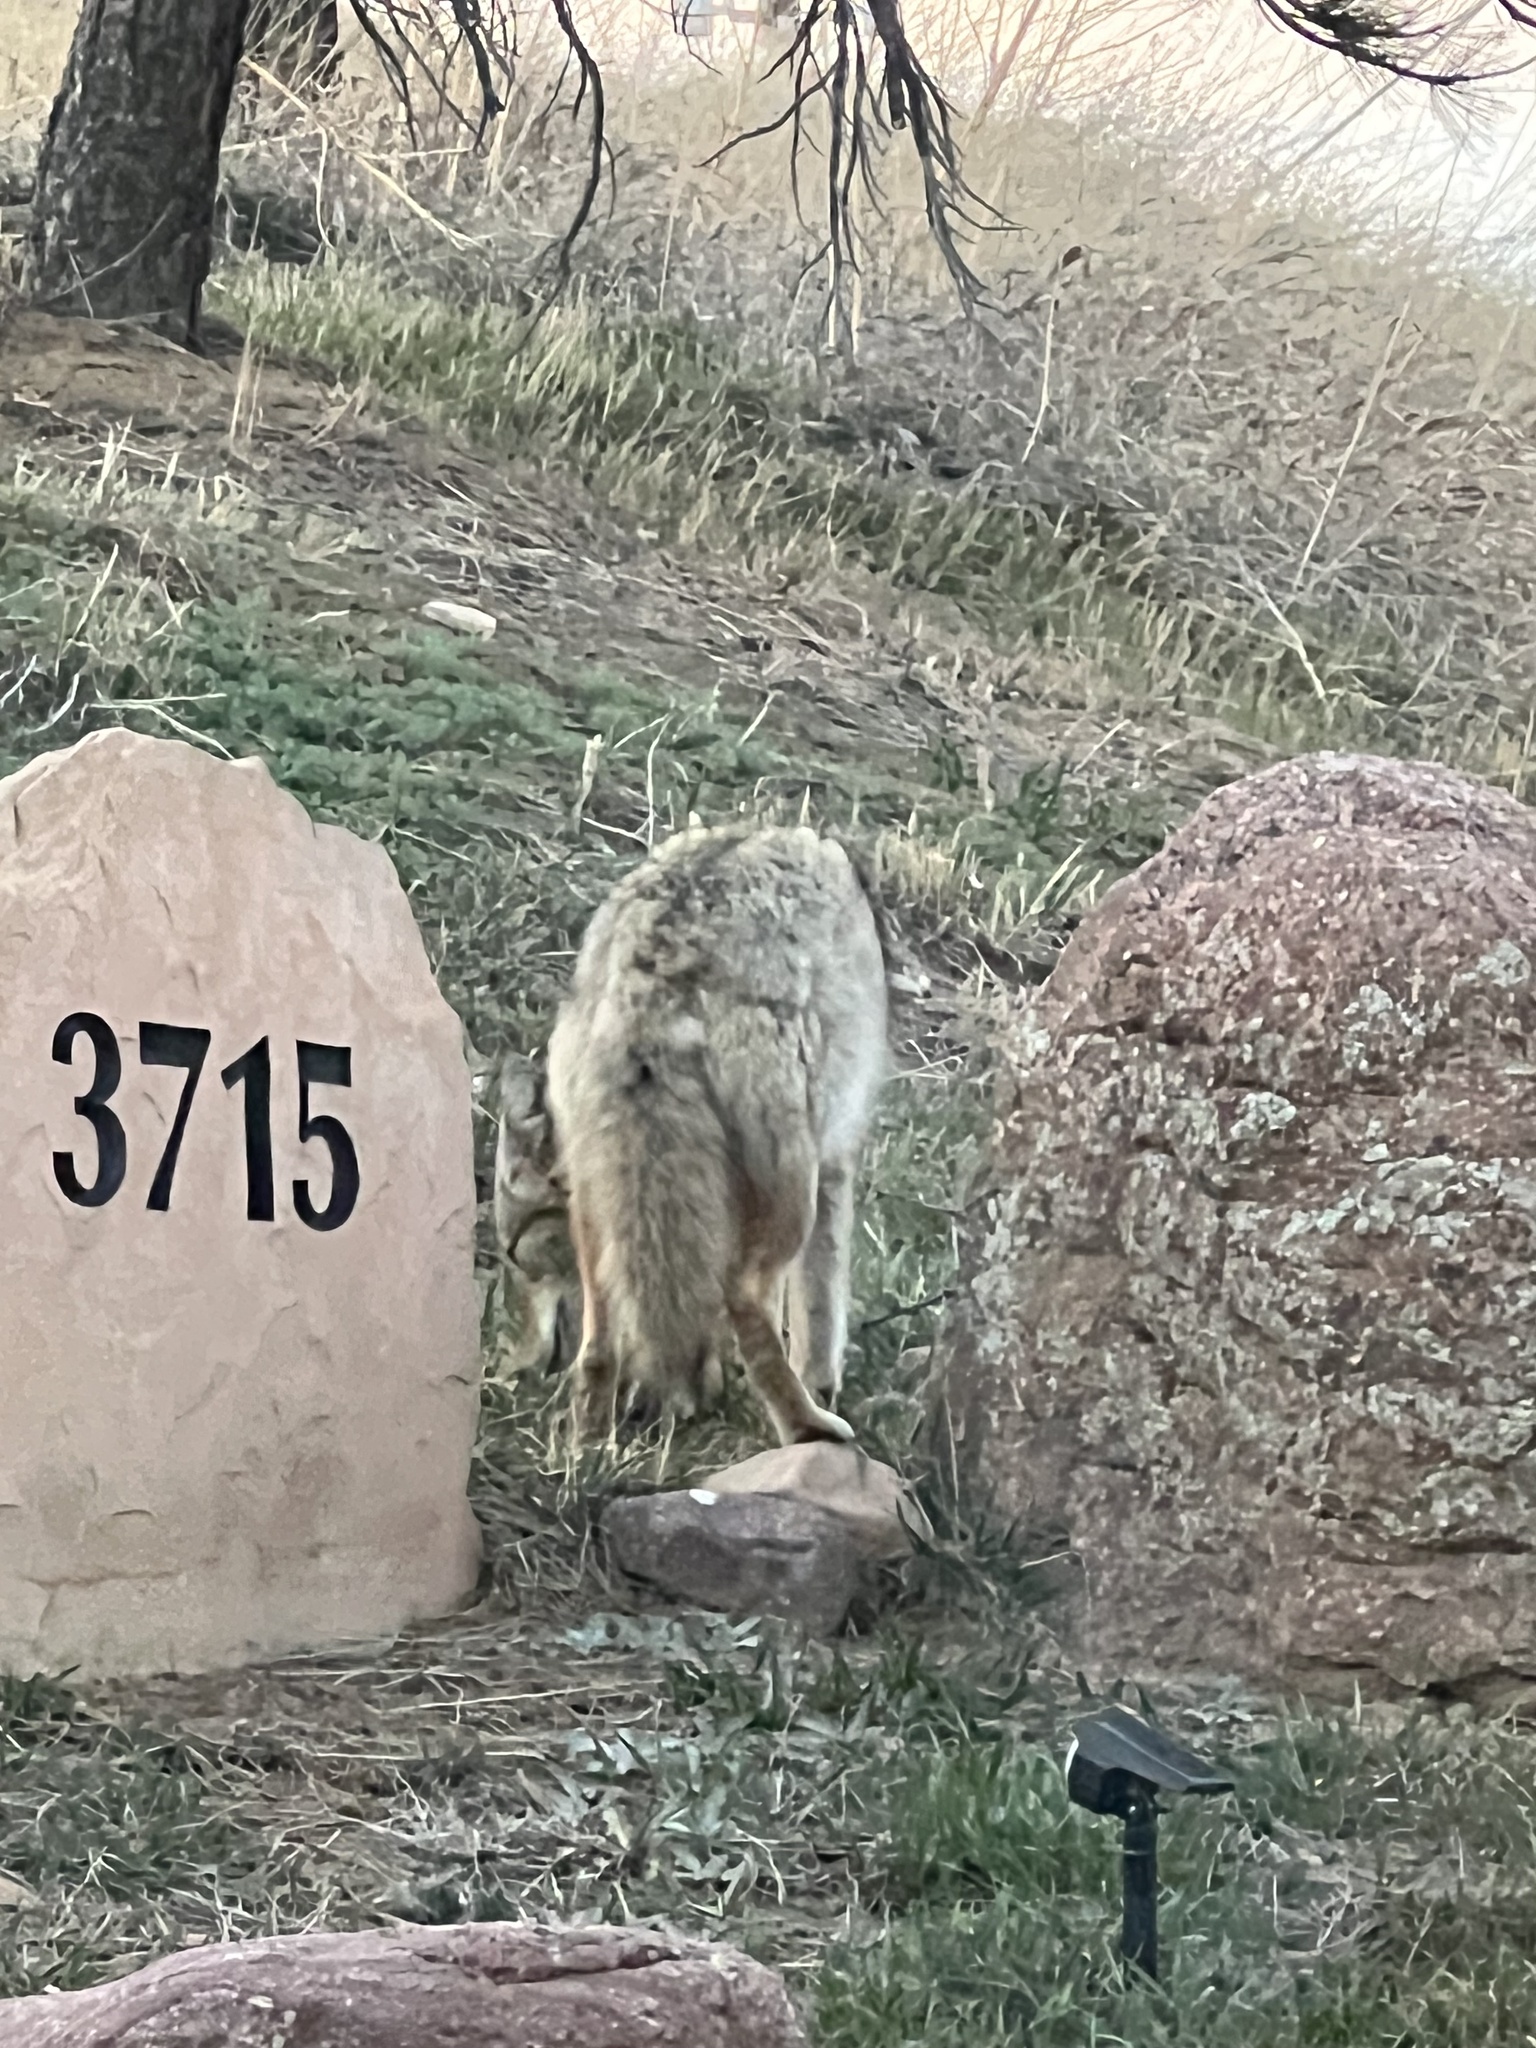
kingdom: Animalia
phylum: Chordata
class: Mammalia
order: Carnivora
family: Canidae
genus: Canis
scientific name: Canis latrans
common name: Coyote
